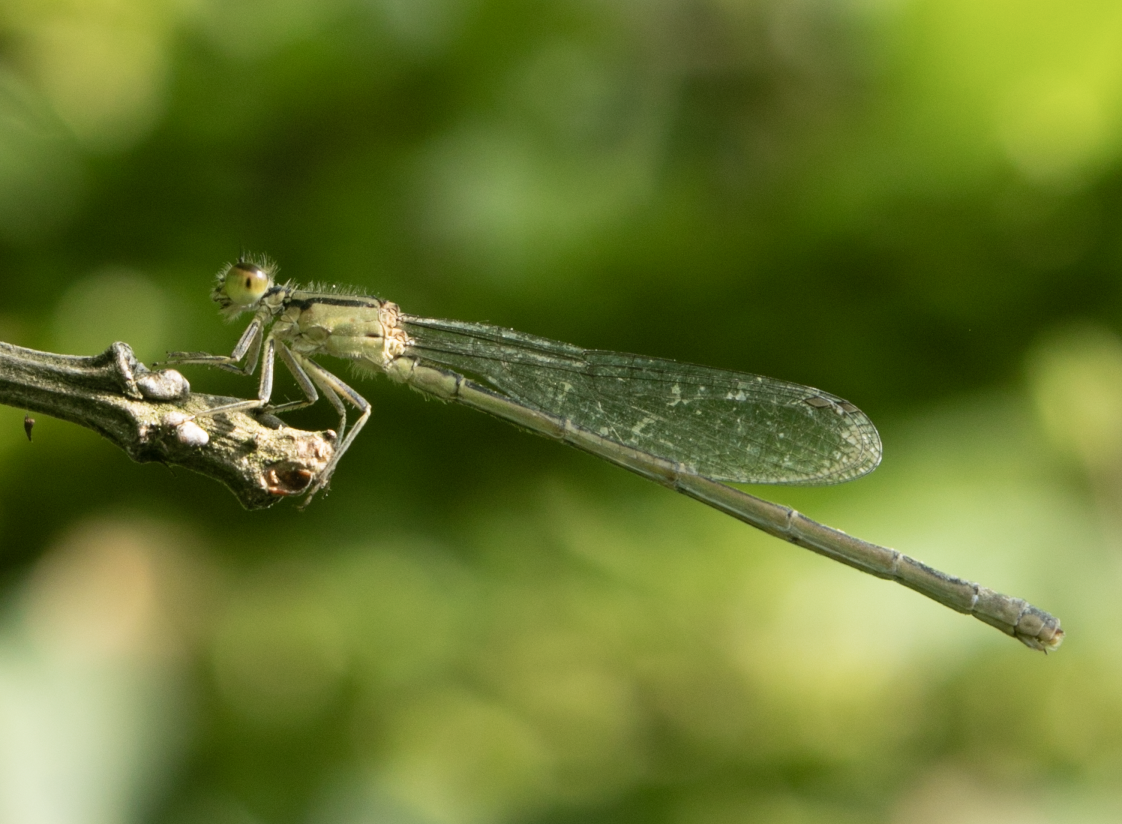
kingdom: Animalia
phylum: Arthropoda
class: Insecta
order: Odonata
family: Coenagrionidae
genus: Ischnura
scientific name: Ischnura elegans
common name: Blue-tailed damselfly
